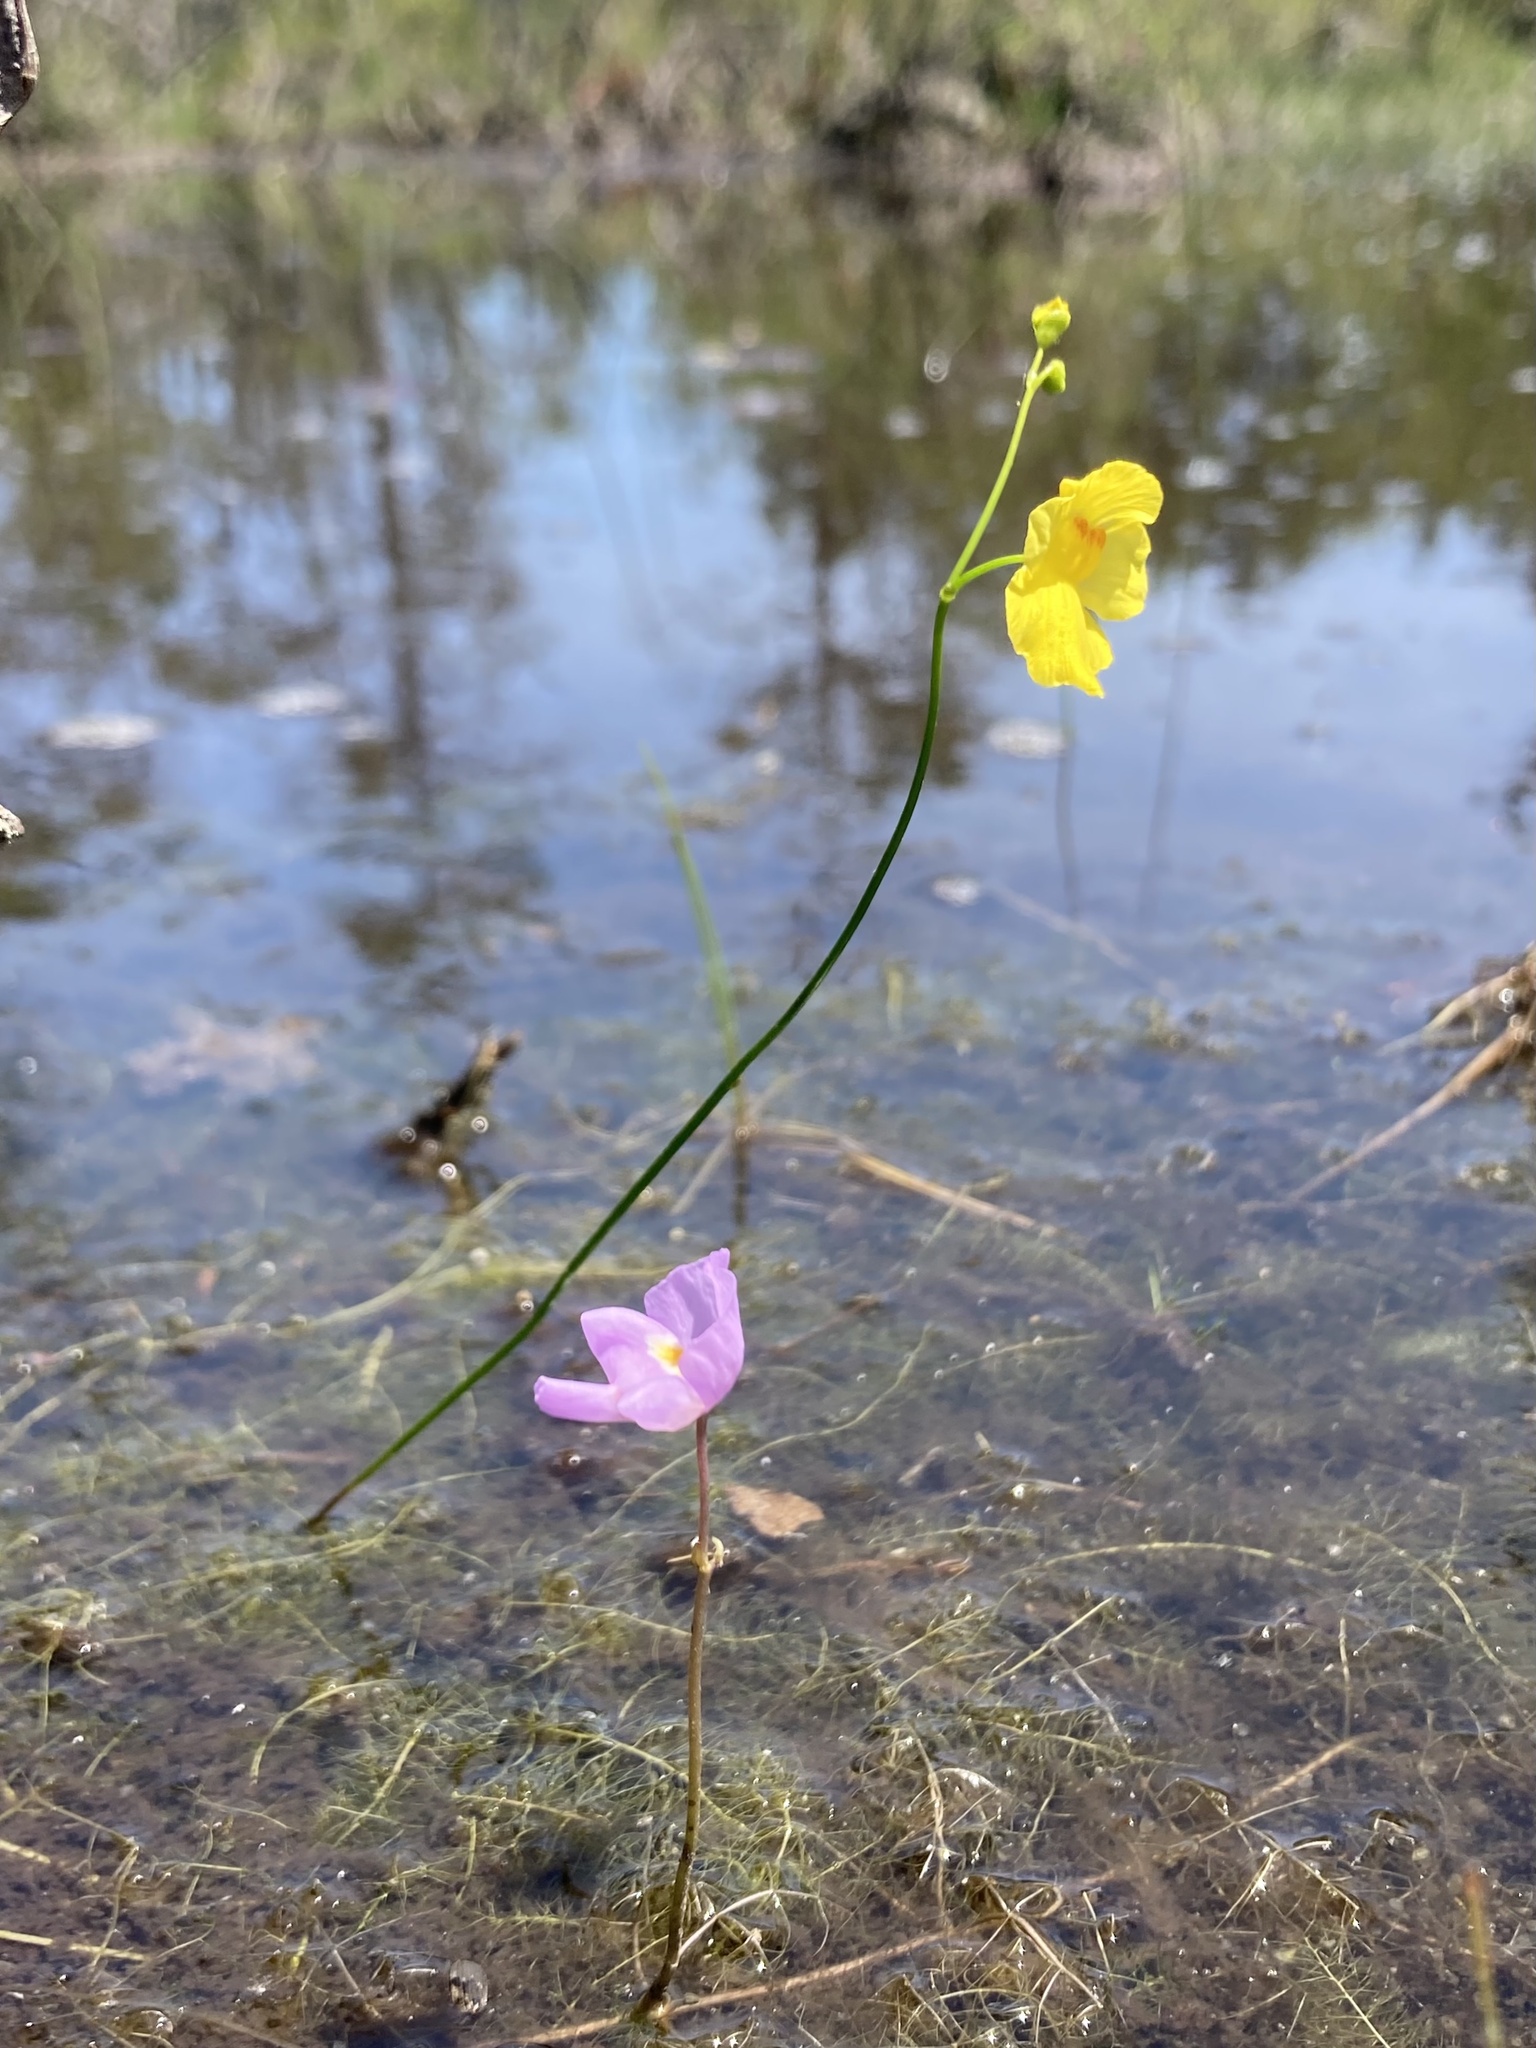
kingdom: Plantae
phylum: Tracheophyta
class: Magnoliopsida
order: Lamiales
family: Lentibulariaceae
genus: Utricularia
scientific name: Utricularia purpurea
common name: Eastern purple bladderwort
